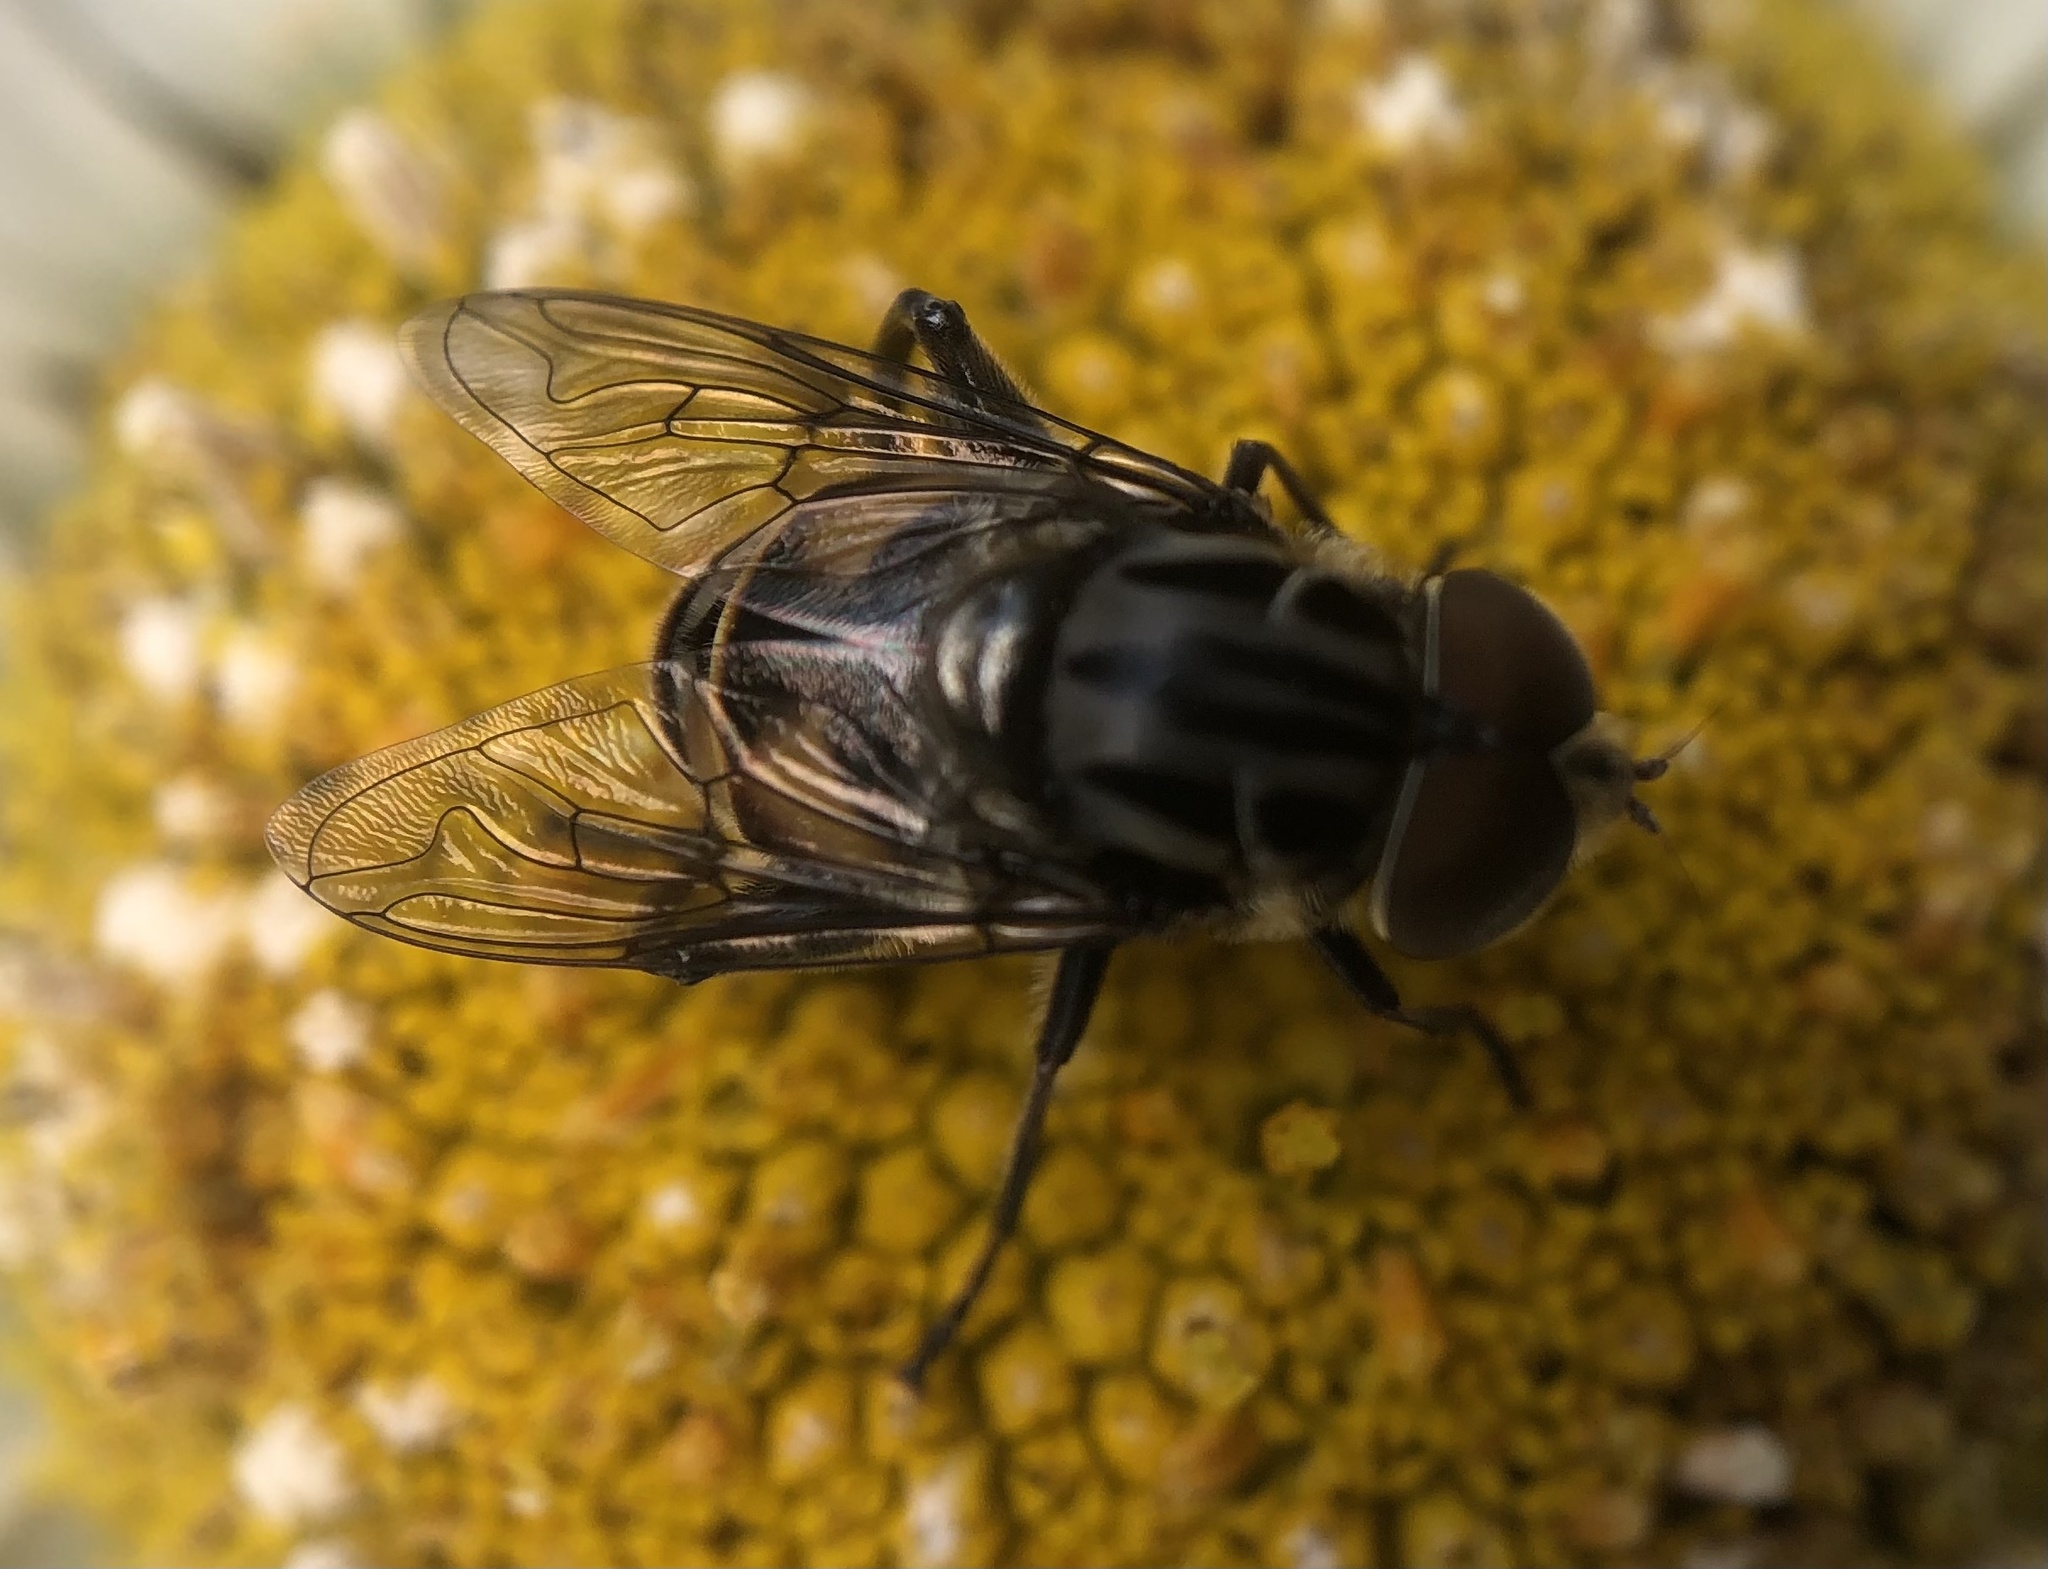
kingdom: Animalia
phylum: Arthropoda
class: Insecta
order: Diptera
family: Syrphidae
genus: Palpada
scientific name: Palpada furcata
